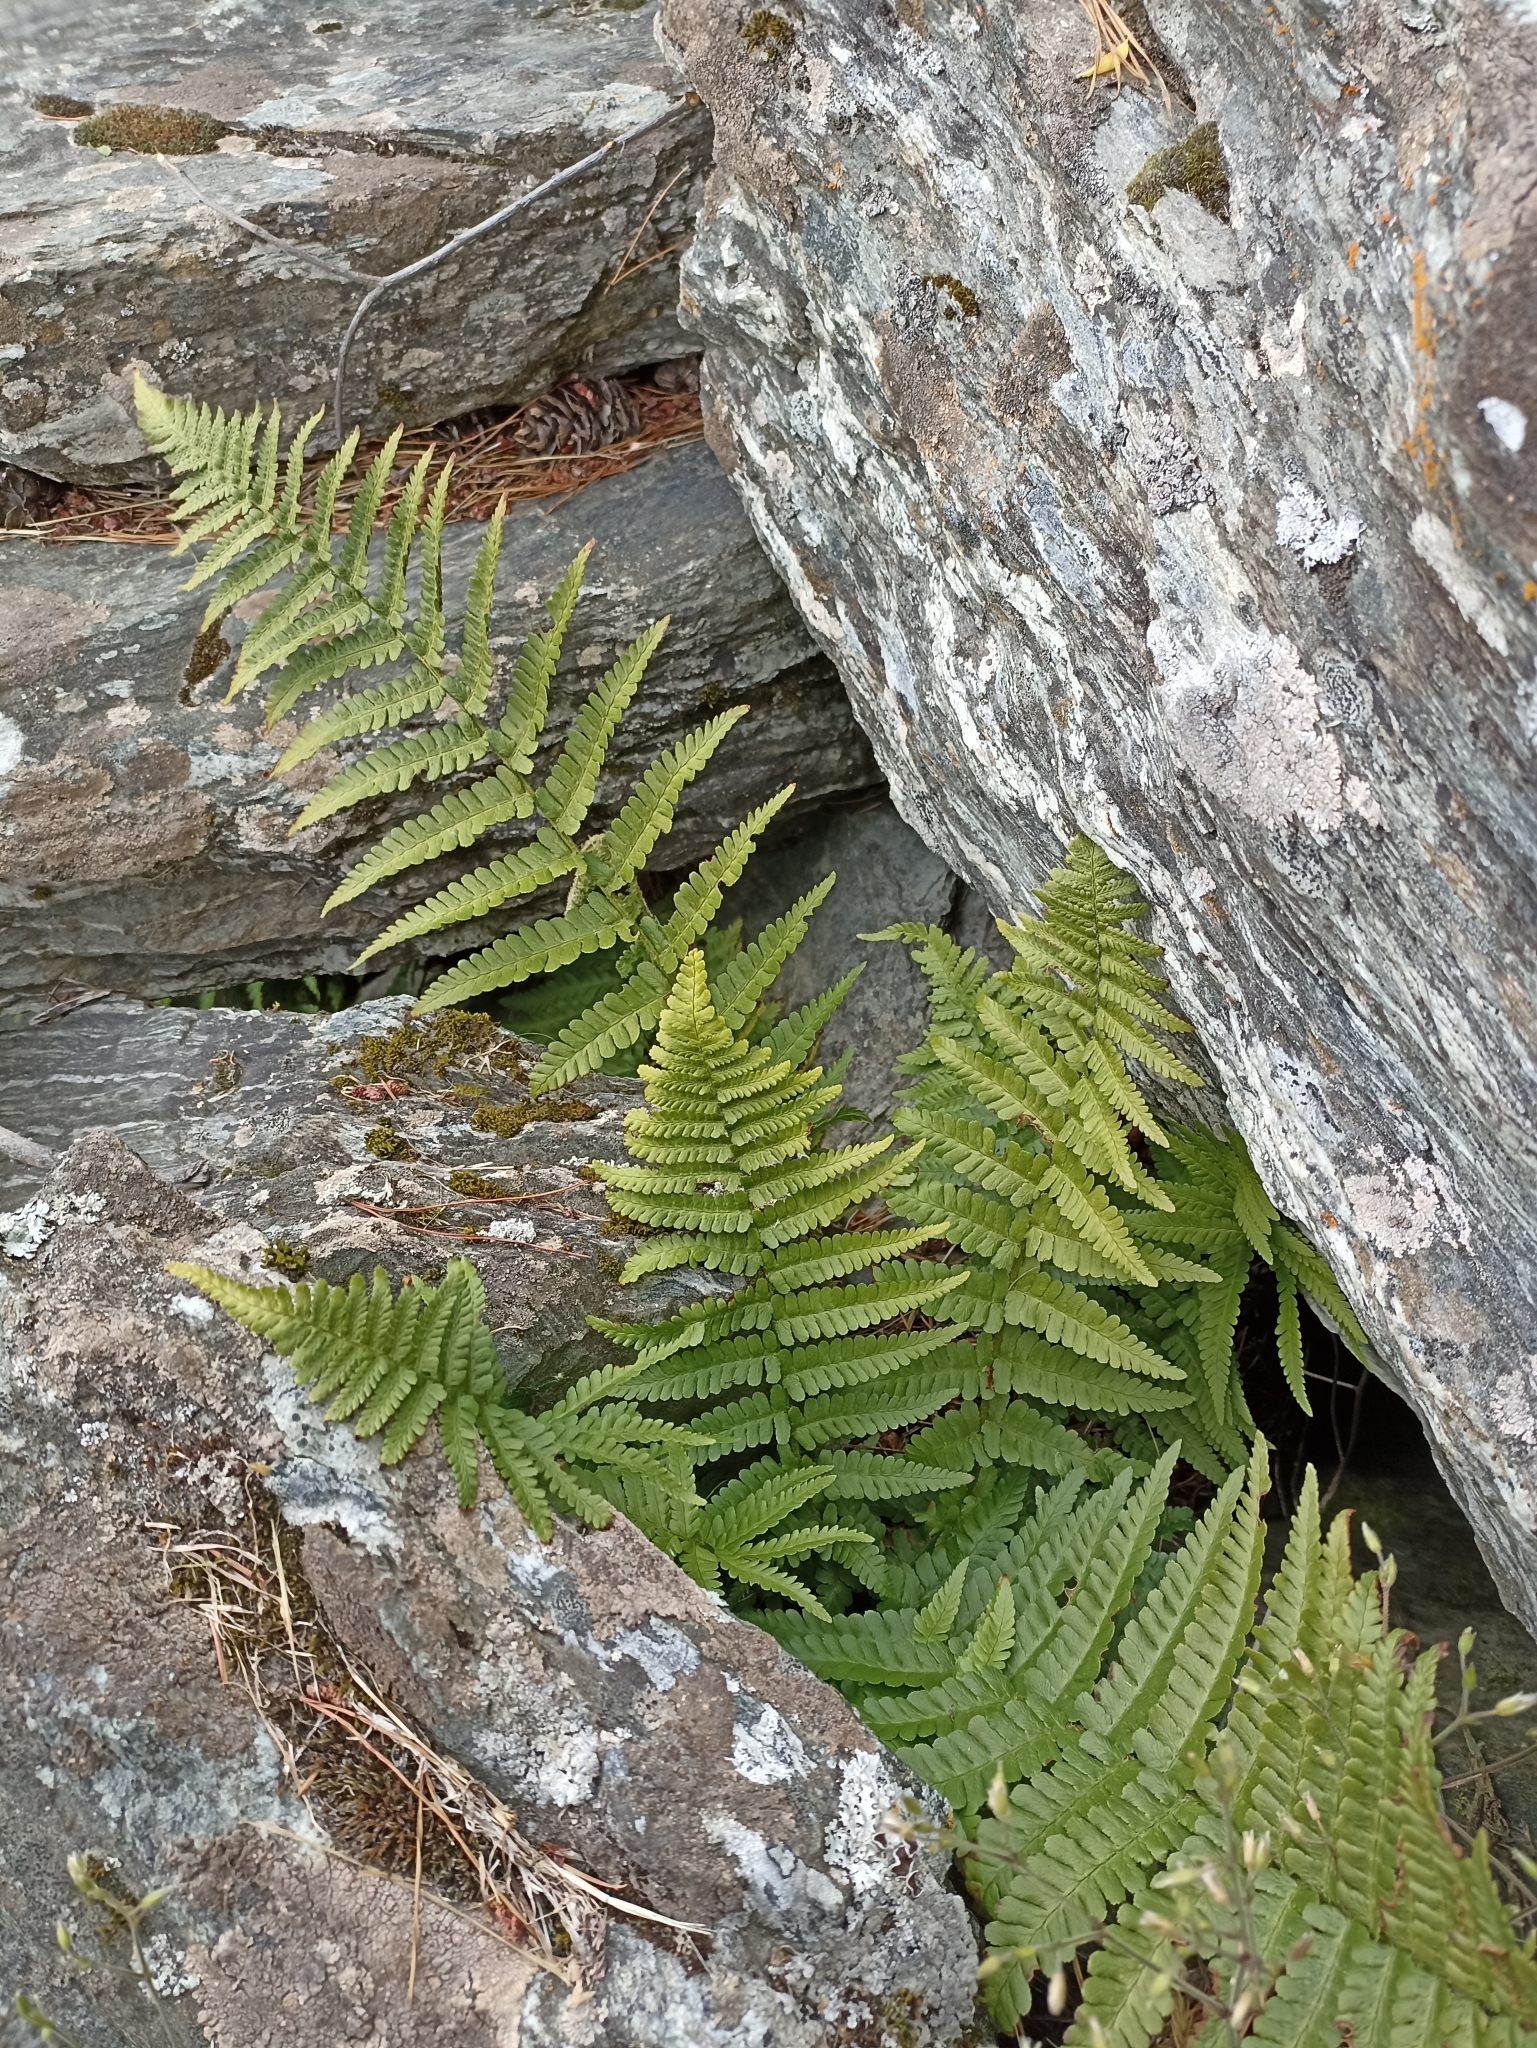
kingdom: Plantae
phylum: Tracheophyta
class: Polypodiopsida
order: Polypodiales
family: Dryopteridaceae
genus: Dryopteris
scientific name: Dryopteris filix-mas
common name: Male fern
